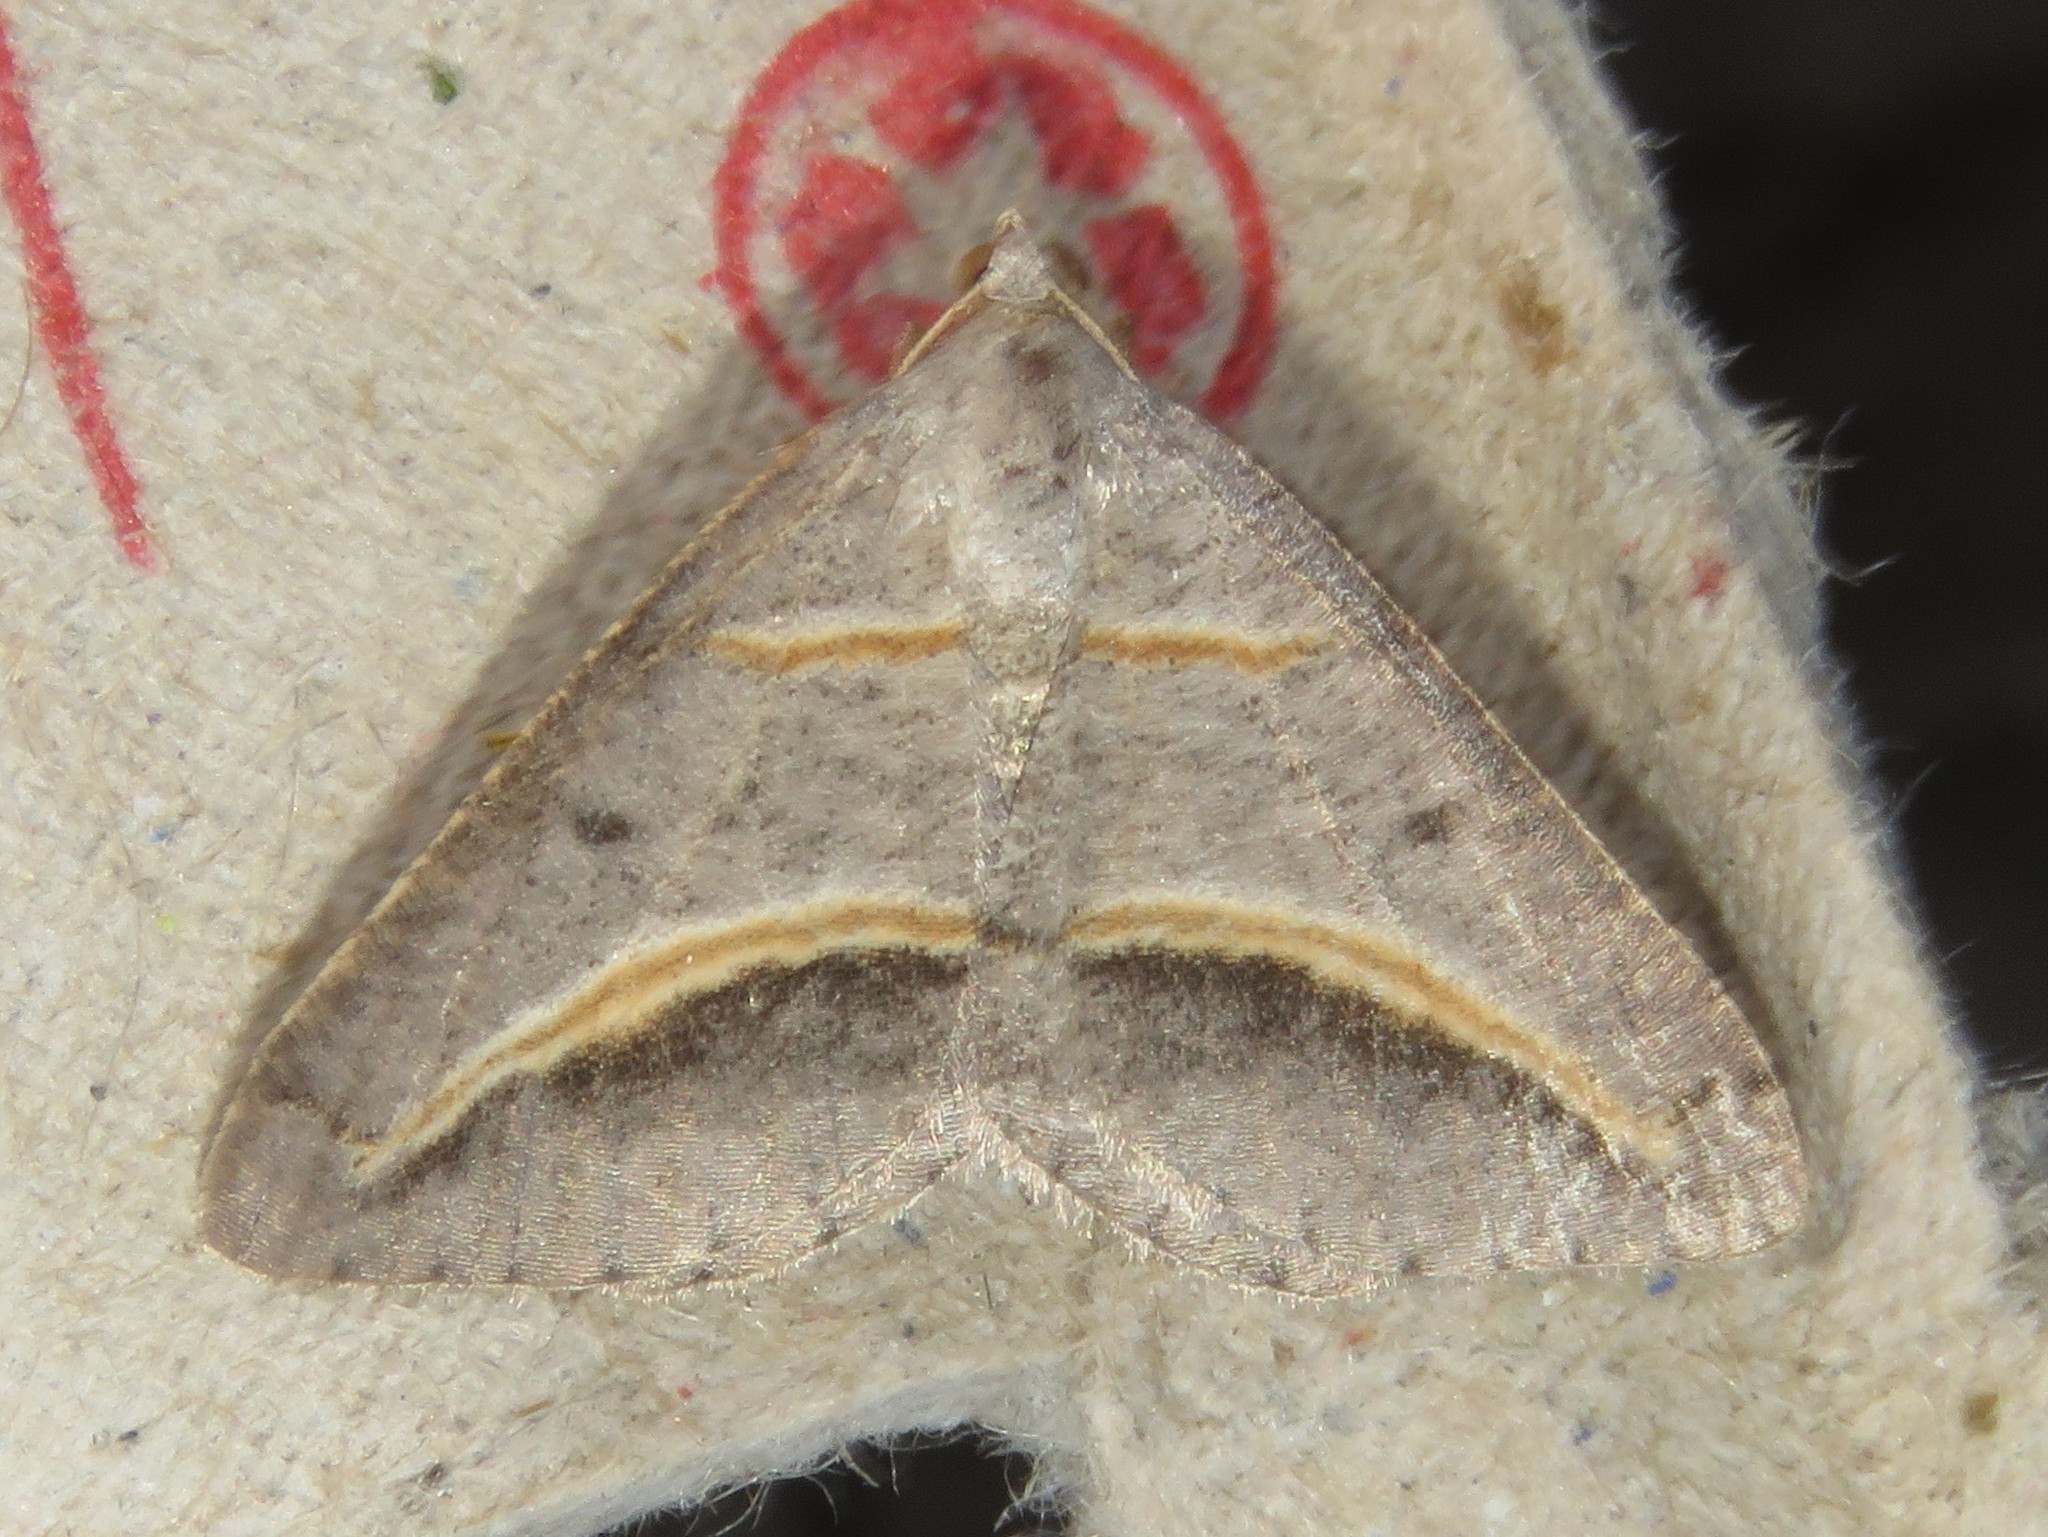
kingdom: Animalia
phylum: Arthropoda
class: Insecta
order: Lepidoptera
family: Geometridae
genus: Digrammia
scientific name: Digrammia mellistrigata
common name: Yellow-lined angle
